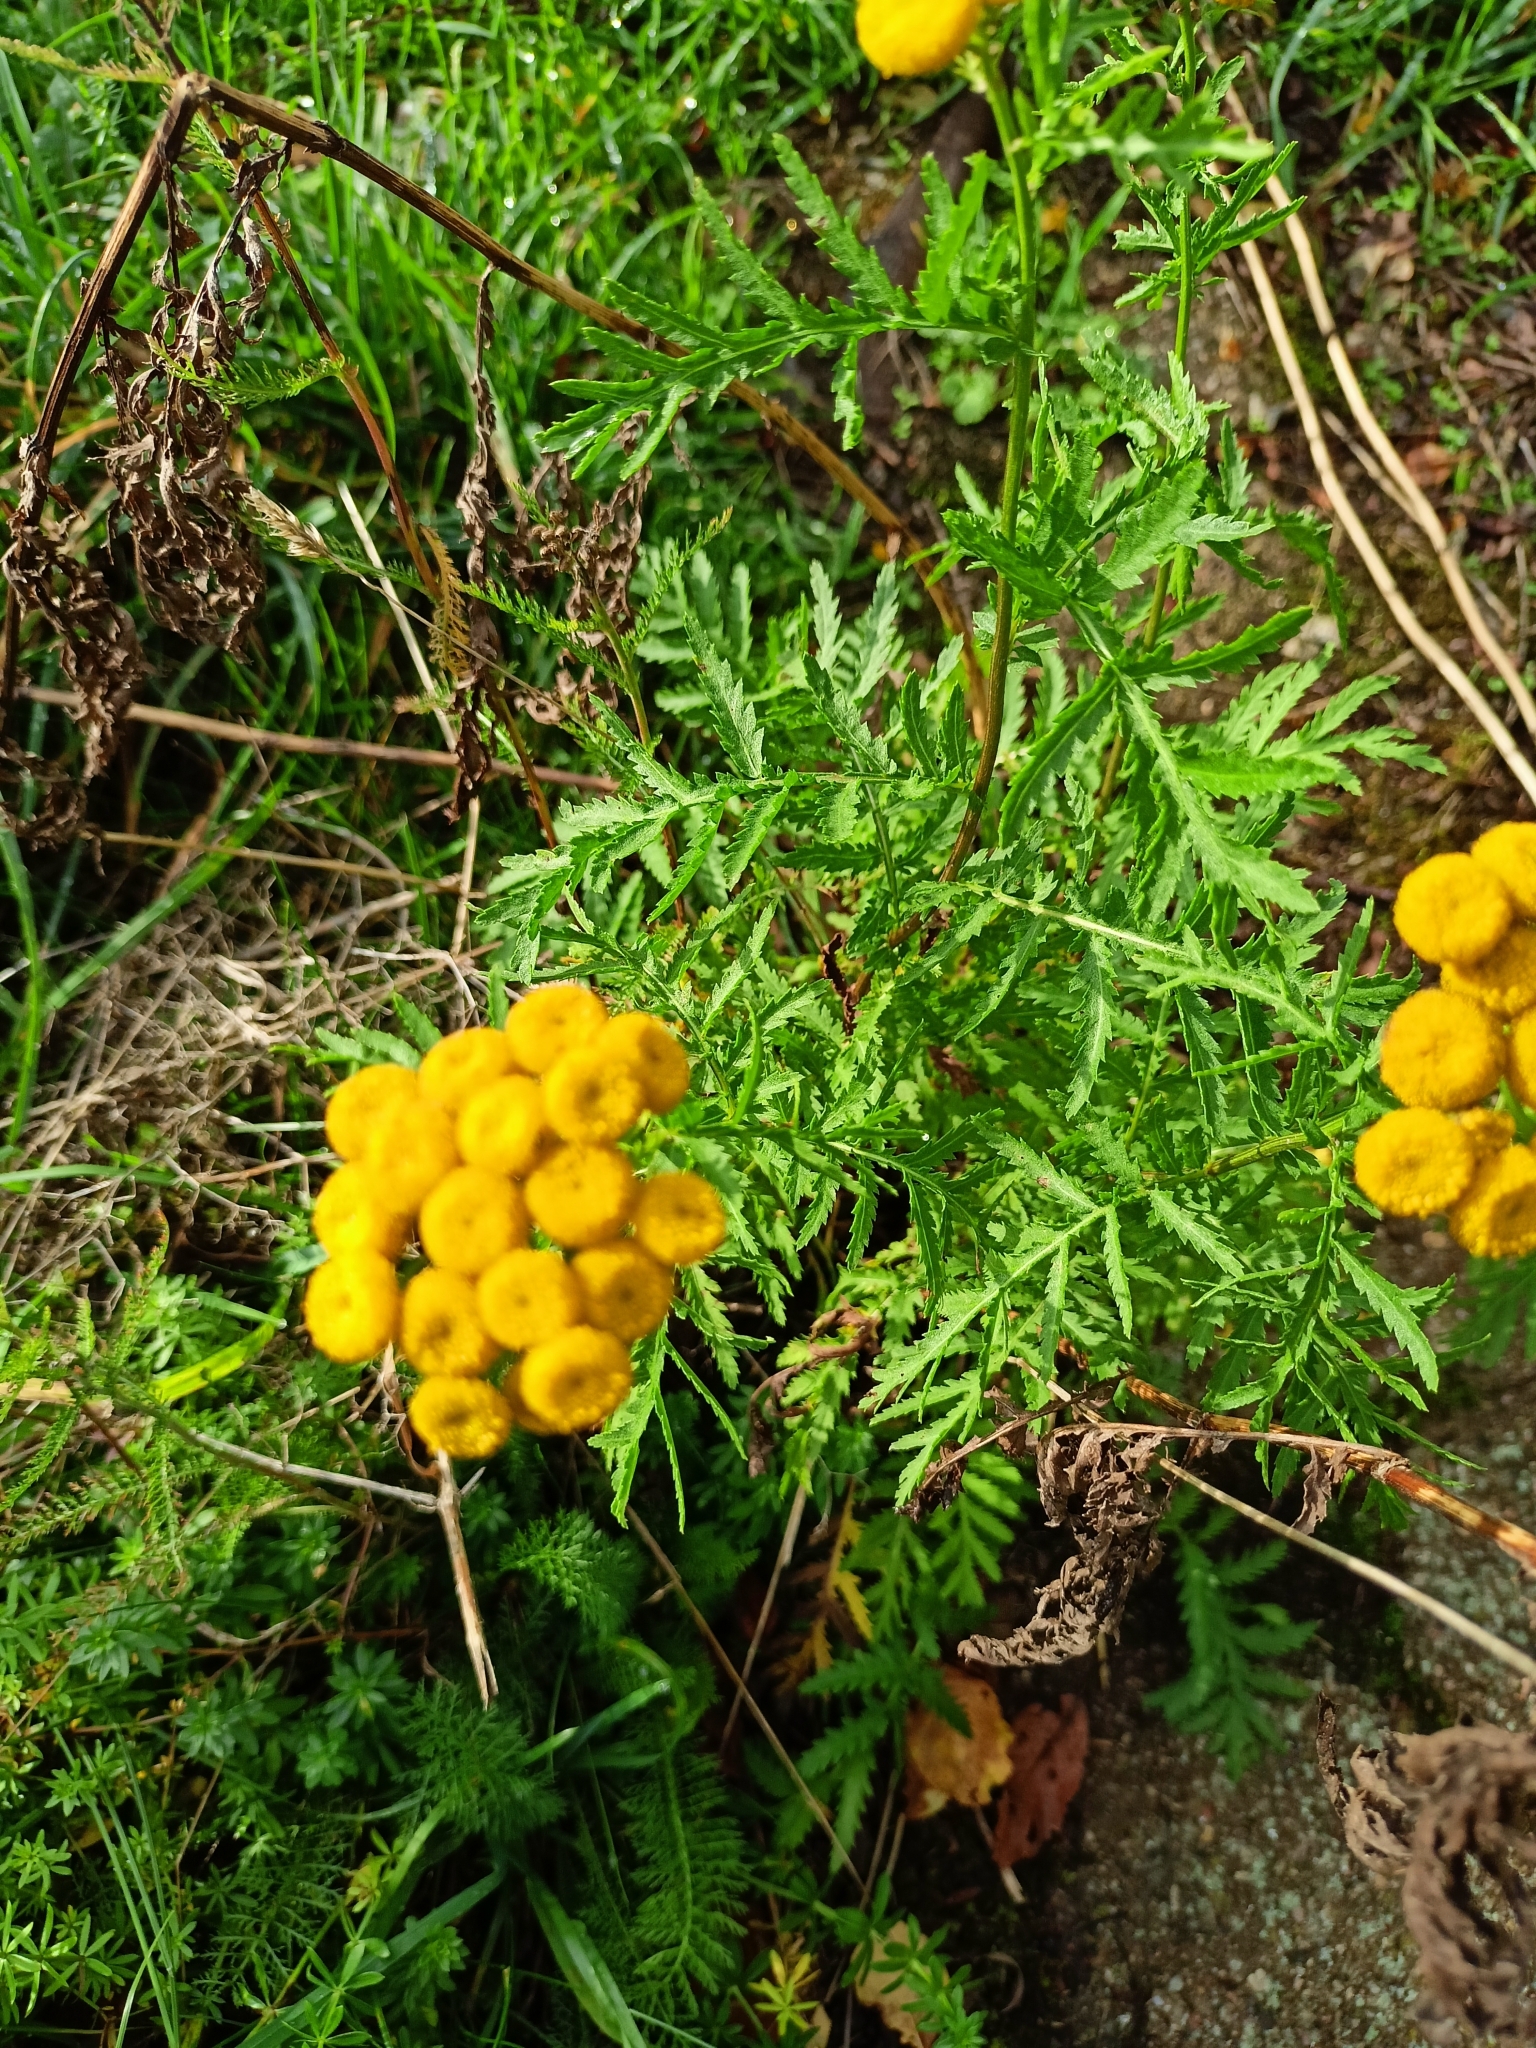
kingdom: Plantae
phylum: Tracheophyta
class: Magnoliopsida
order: Asterales
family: Asteraceae
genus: Tanacetum
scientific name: Tanacetum vulgare
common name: Common tansy
